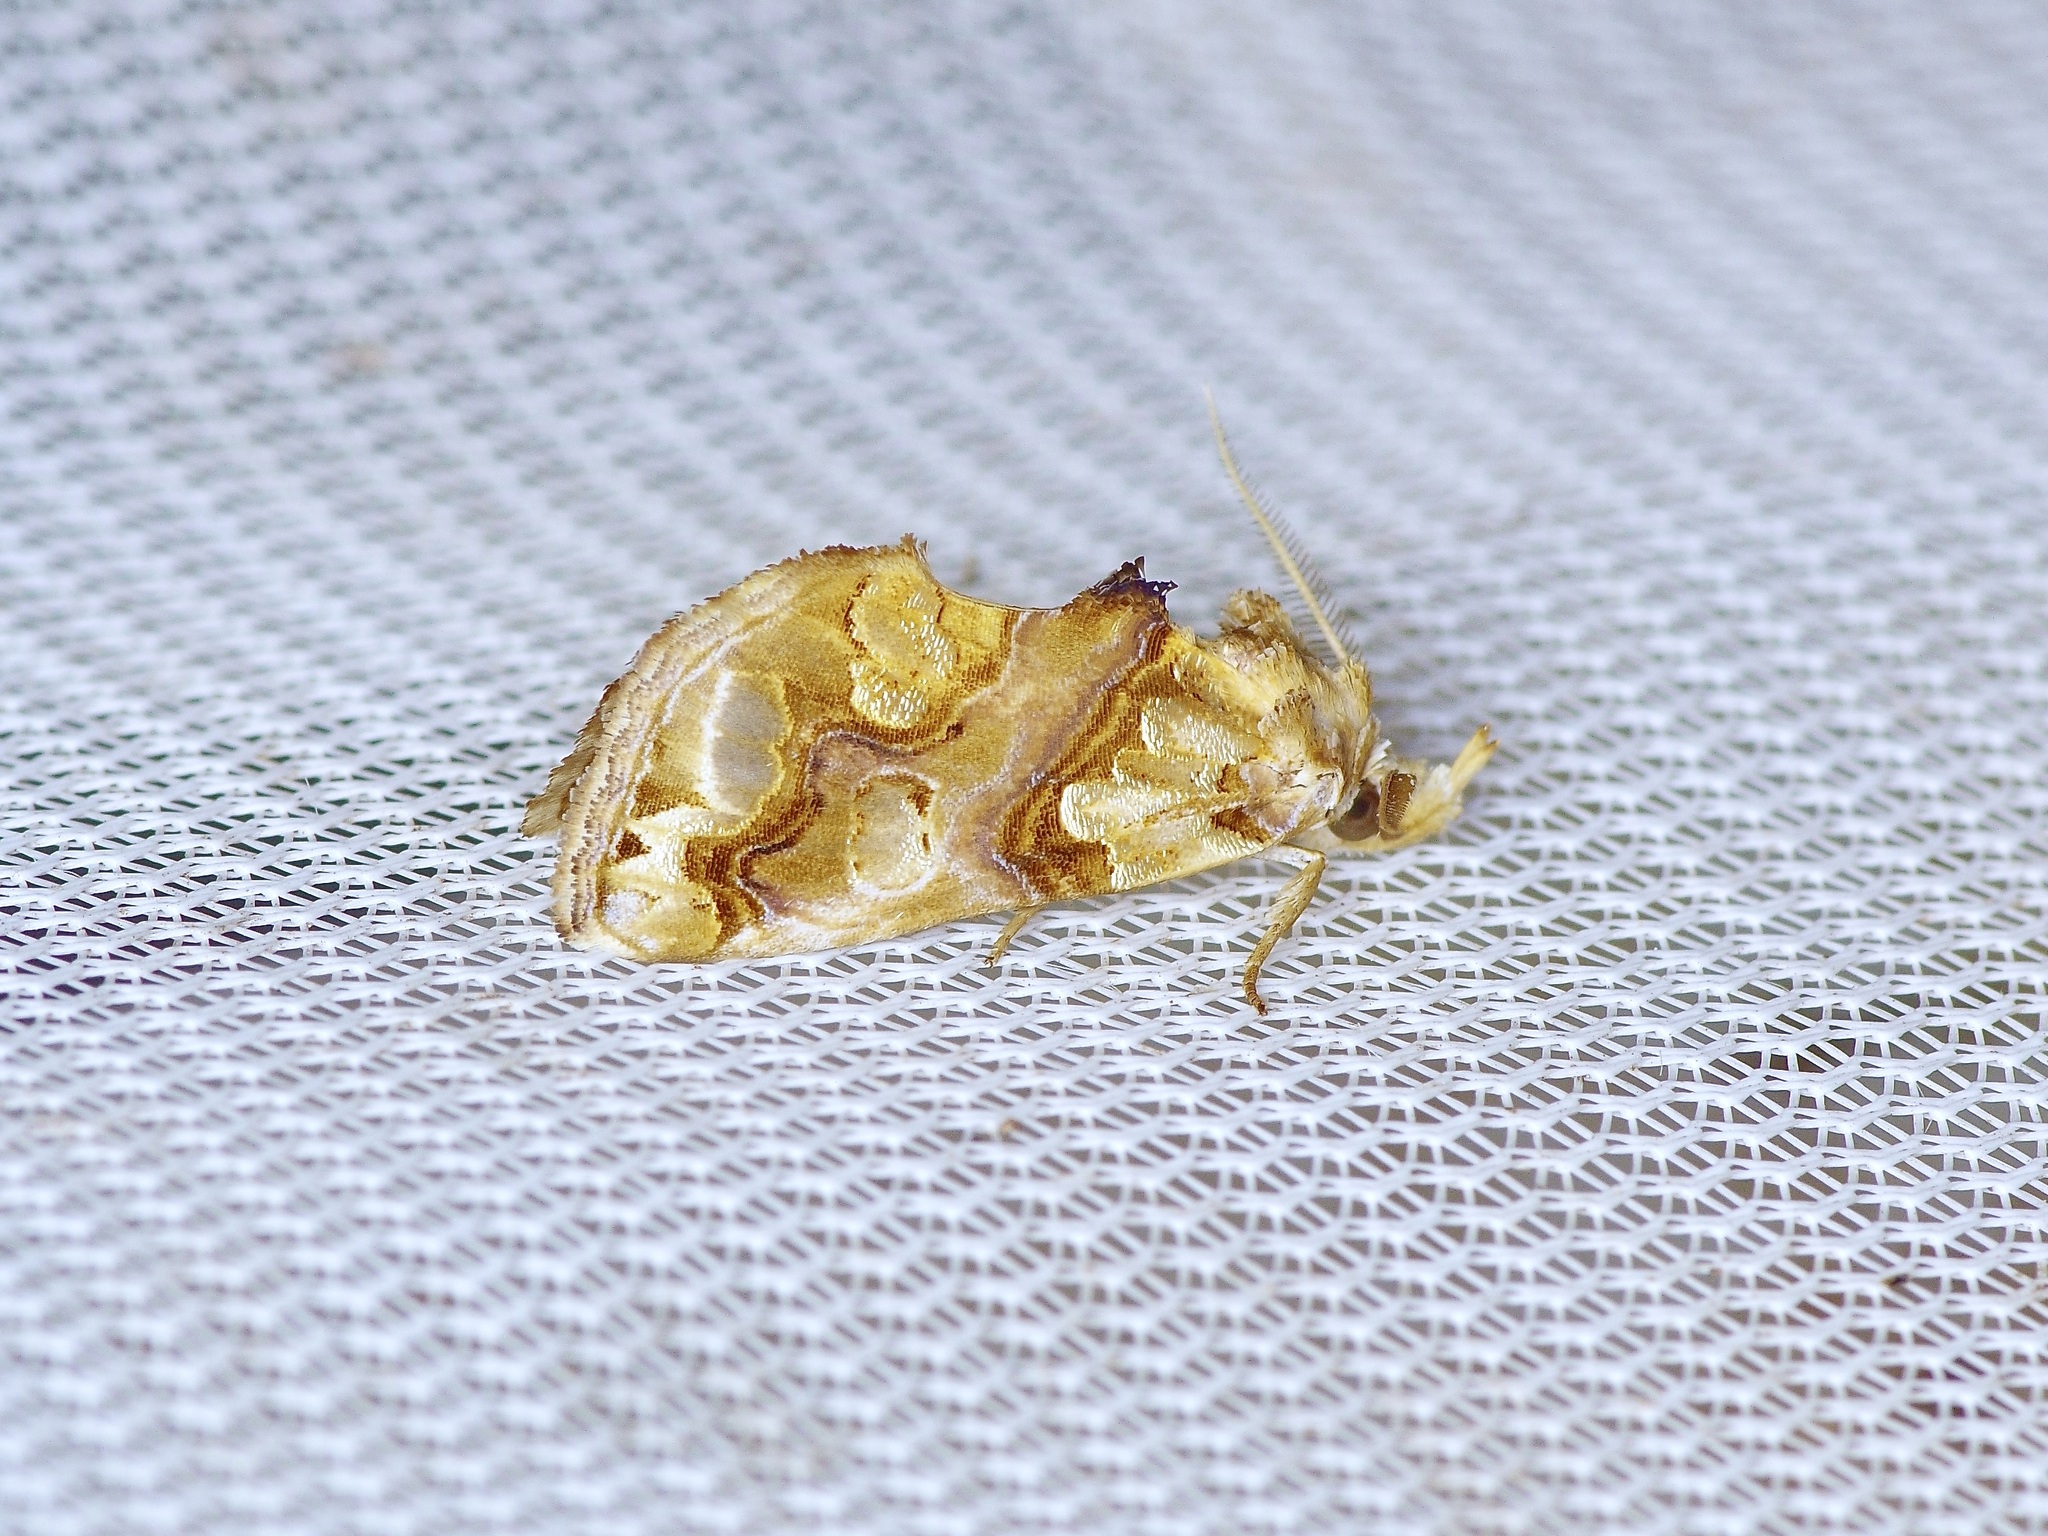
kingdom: Animalia
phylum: Arthropoda
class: Insecta
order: Lepidoptera
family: Erebidae
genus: Plusiodonta
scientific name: Plusiodonta compressipalpis
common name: Moonseed moth
